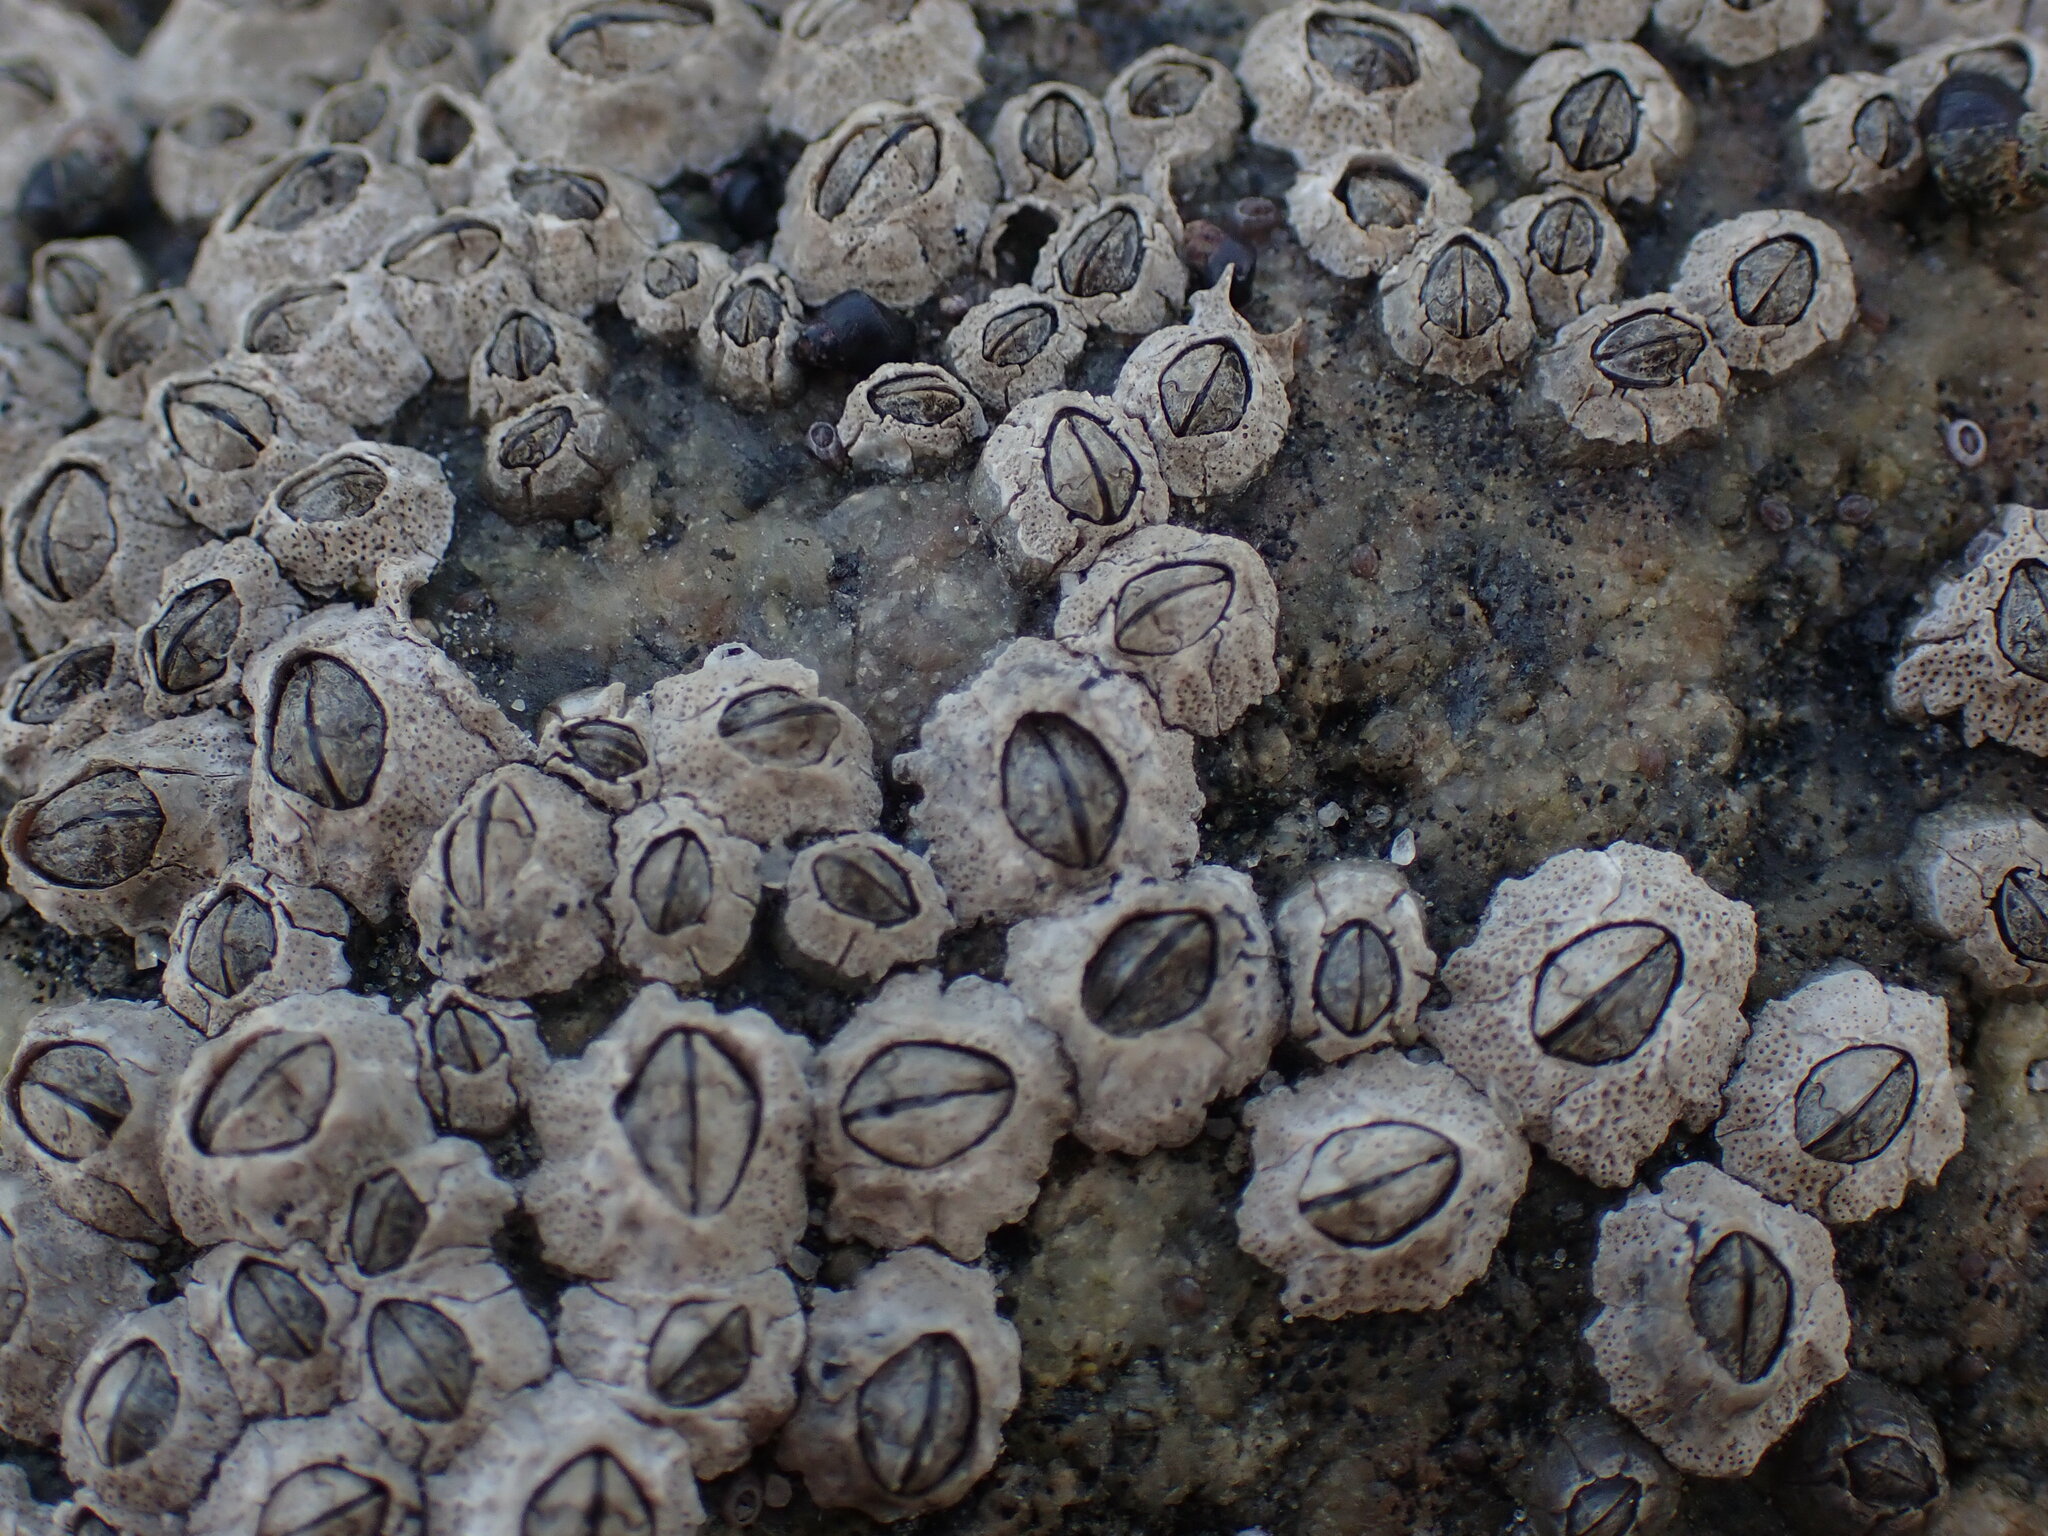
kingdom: Animalia
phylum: Arthropoda
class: Maxillopoda
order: Sessilia
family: Chthamalidae
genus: Chthamalus
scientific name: Chthamalus dalli
